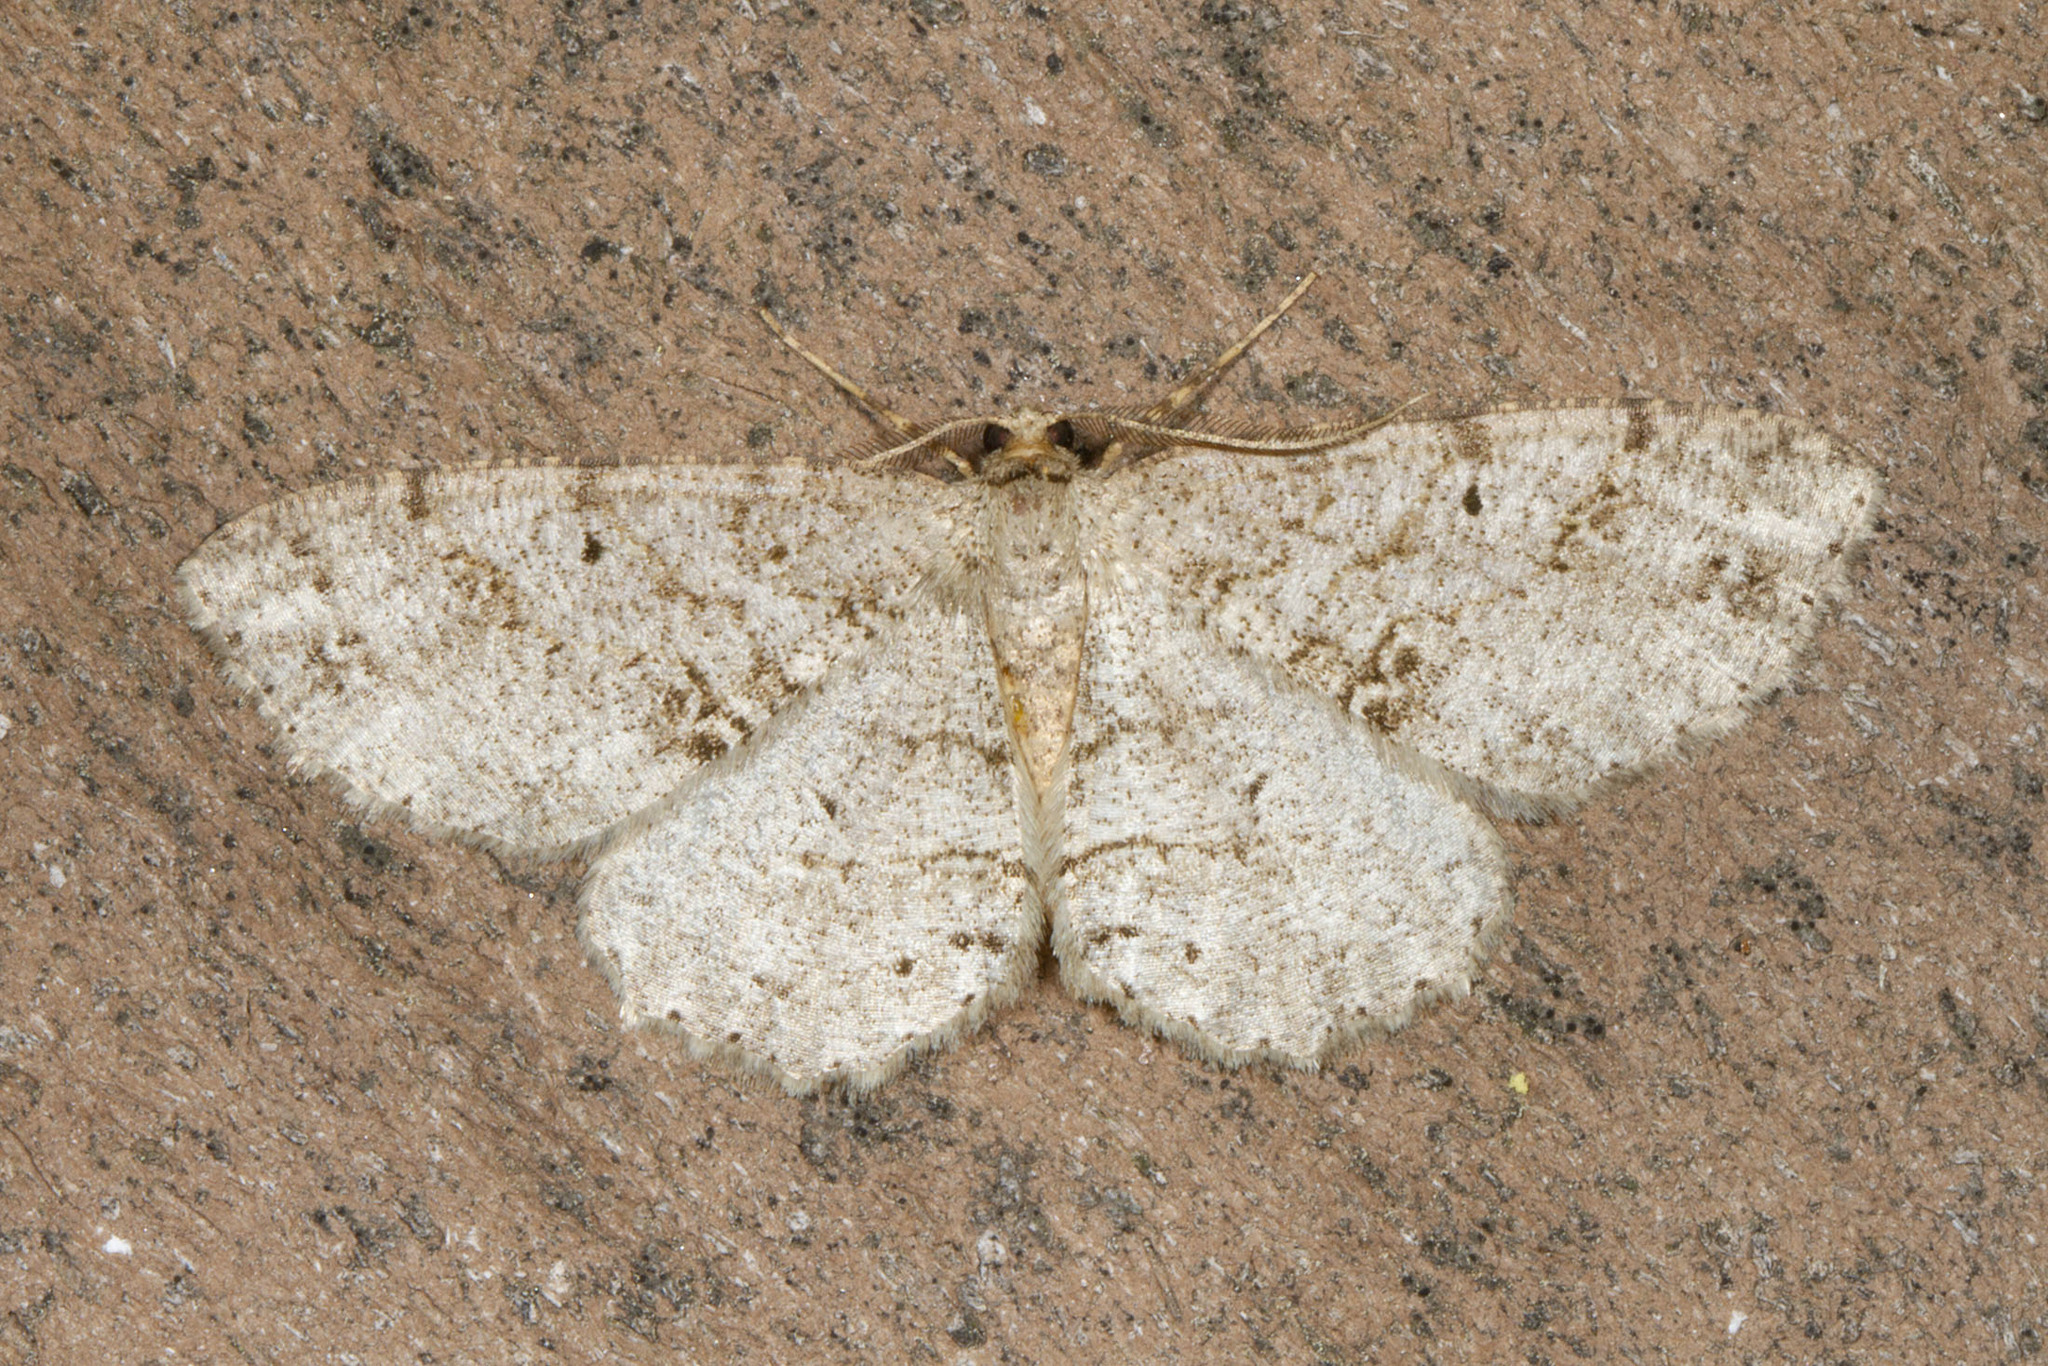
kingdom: Animalia
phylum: Arthropoda
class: Insecta
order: Lepidoptera
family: Geometridae
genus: Melanolophia
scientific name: Melanolophia canadaria
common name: Canadian melanolophia
